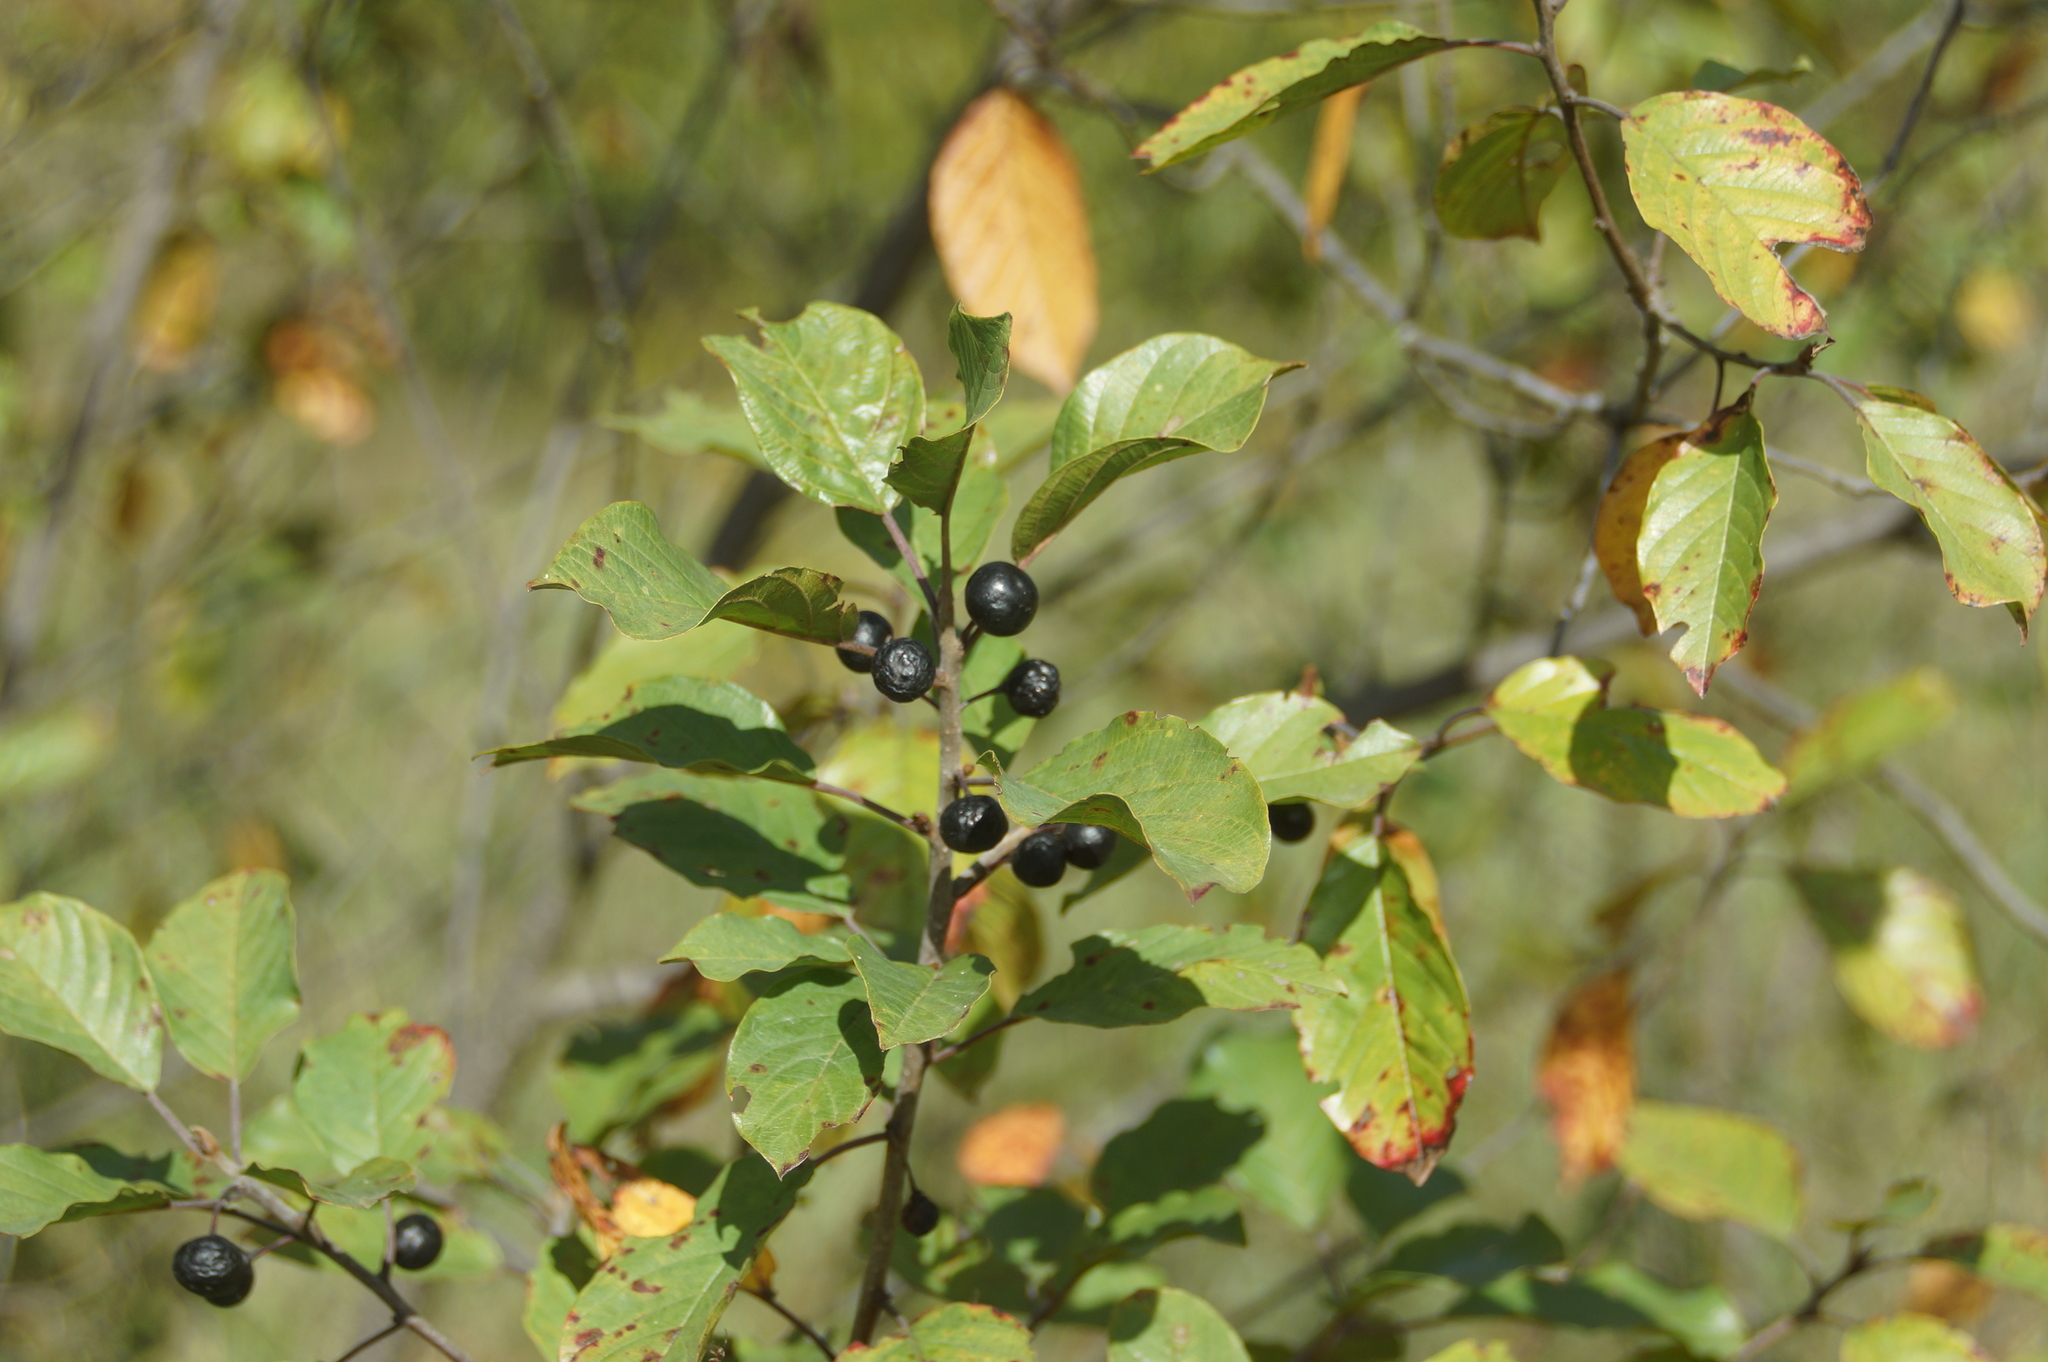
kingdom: Plantae
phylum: Tracheophyta
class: Magnoliopsida
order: Rosales
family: Rhamnaceae
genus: Frangula
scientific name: Frangula alnus
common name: Alder buckthorn
